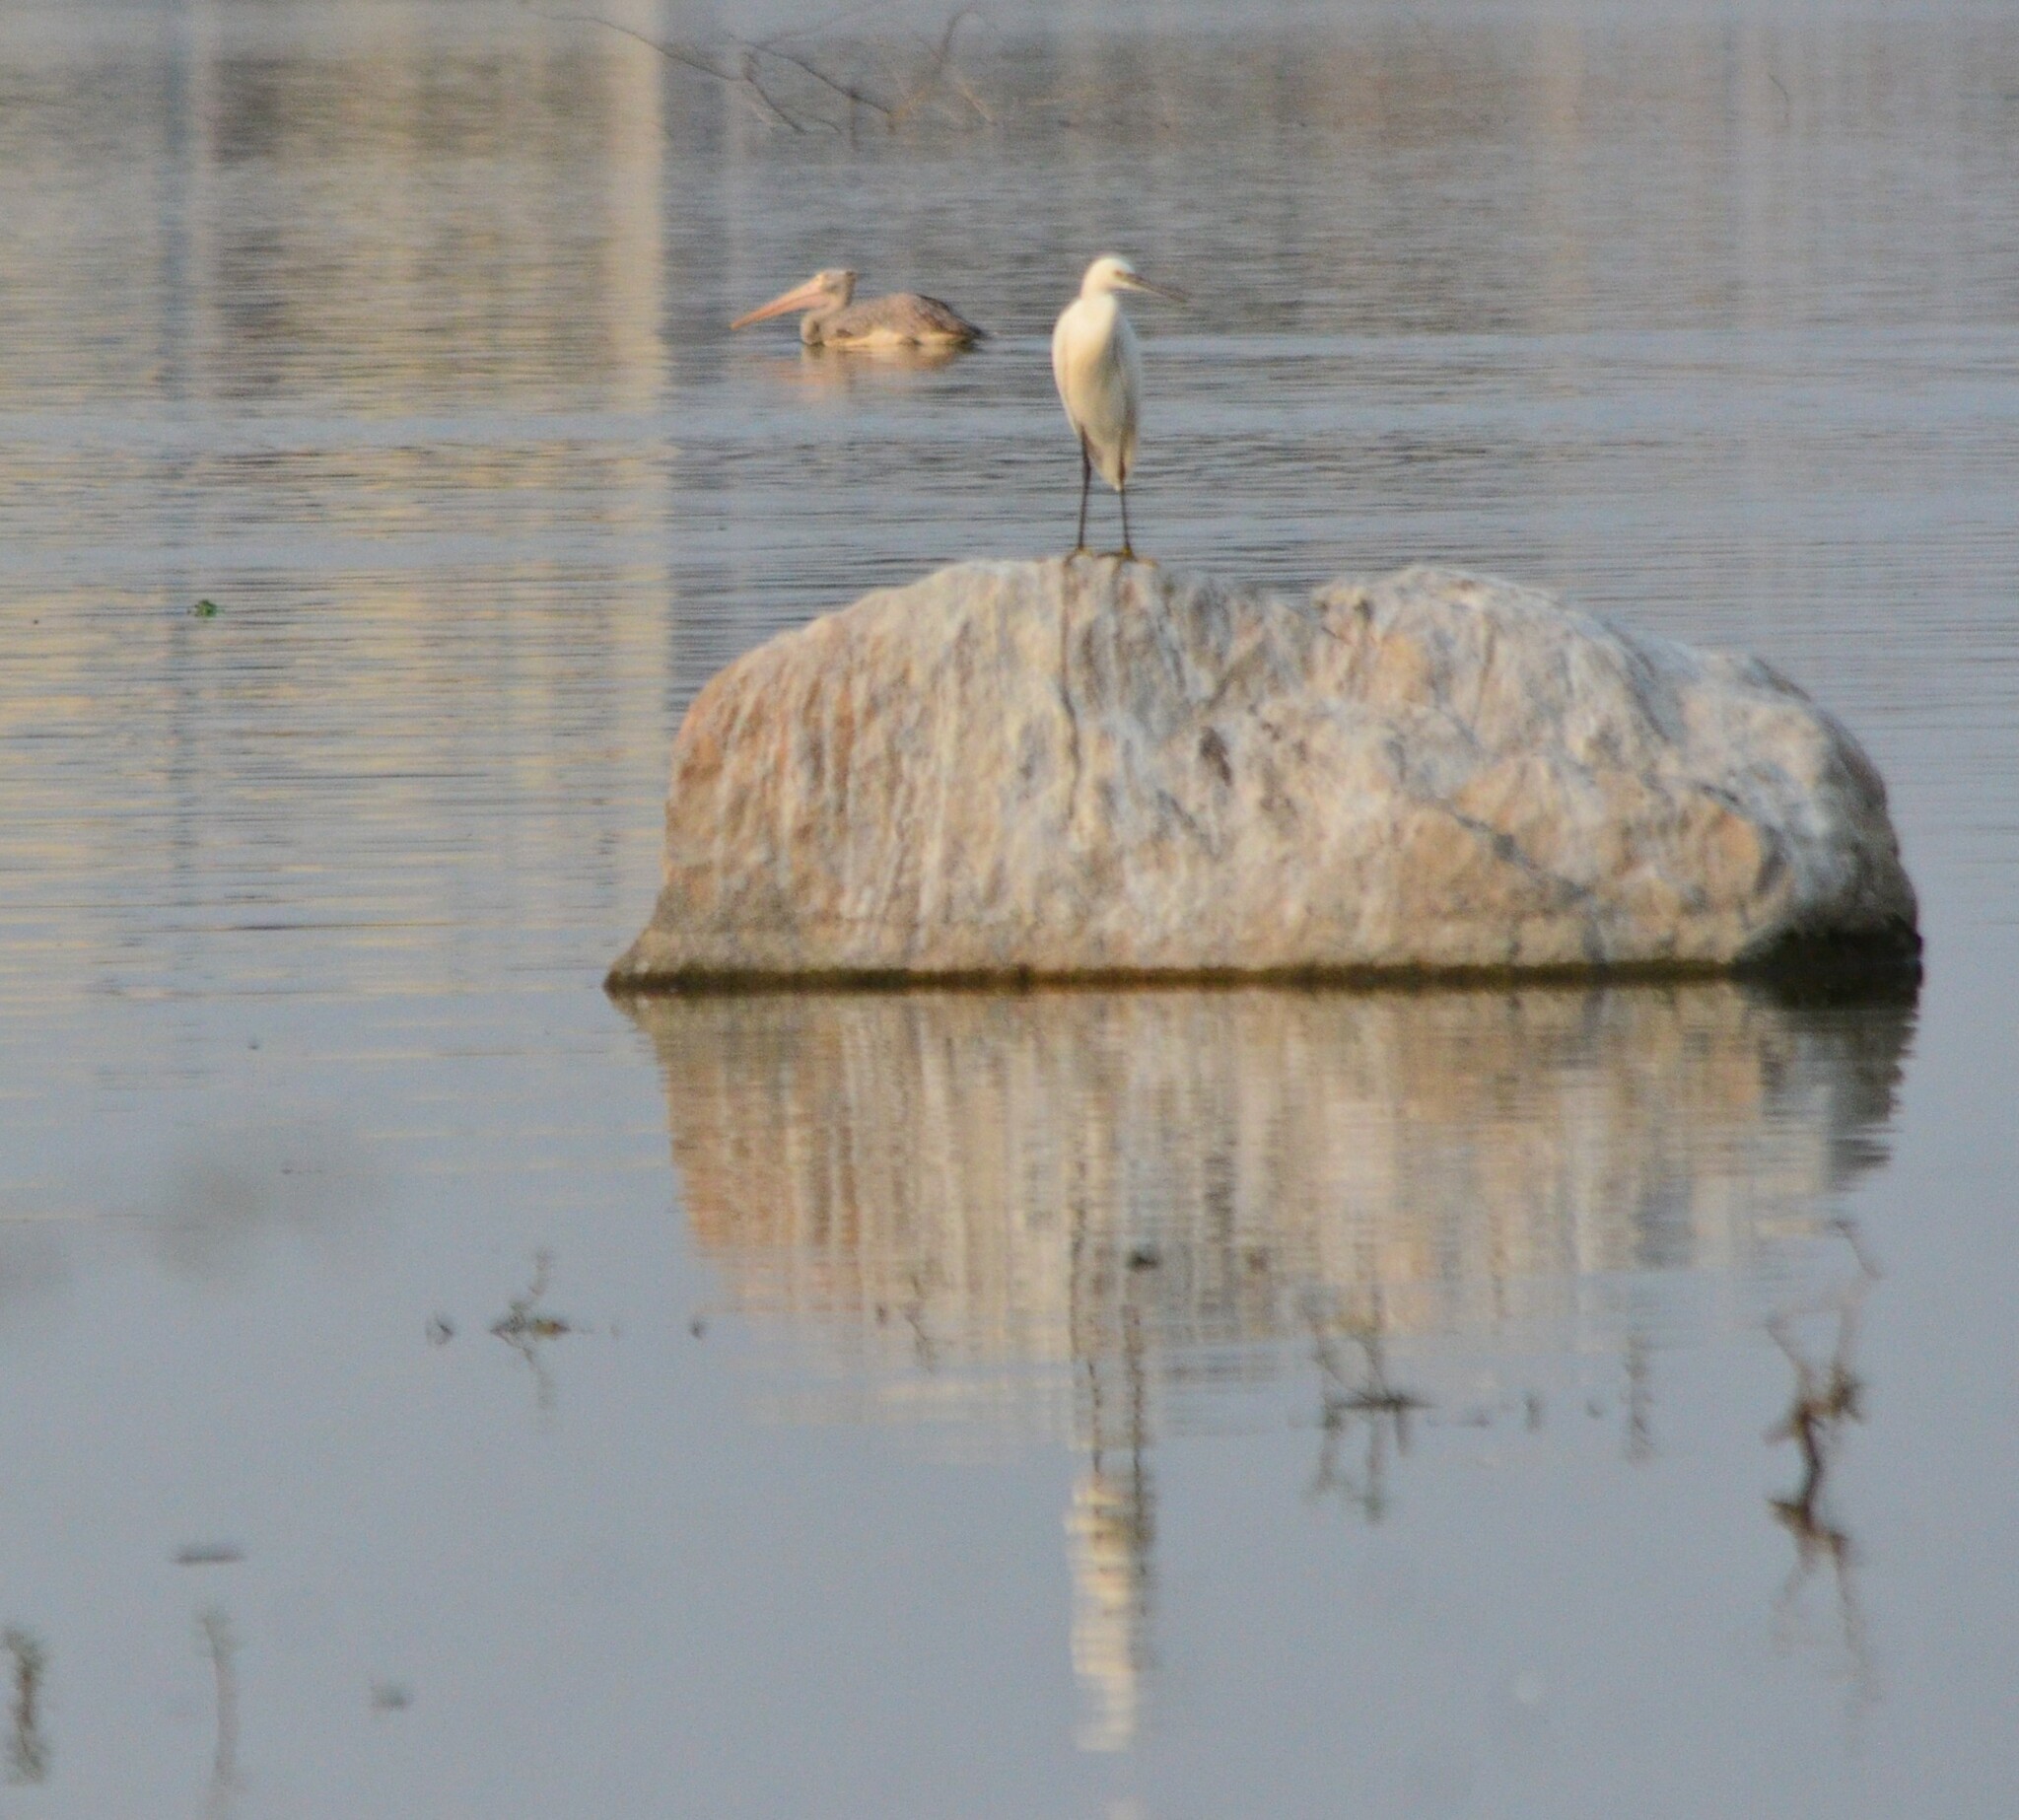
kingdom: Animalia
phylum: Chordata
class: Aves
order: Pelecaniformes
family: Ardeidae
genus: Egretta
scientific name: Egretta garzetta
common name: Little egret
